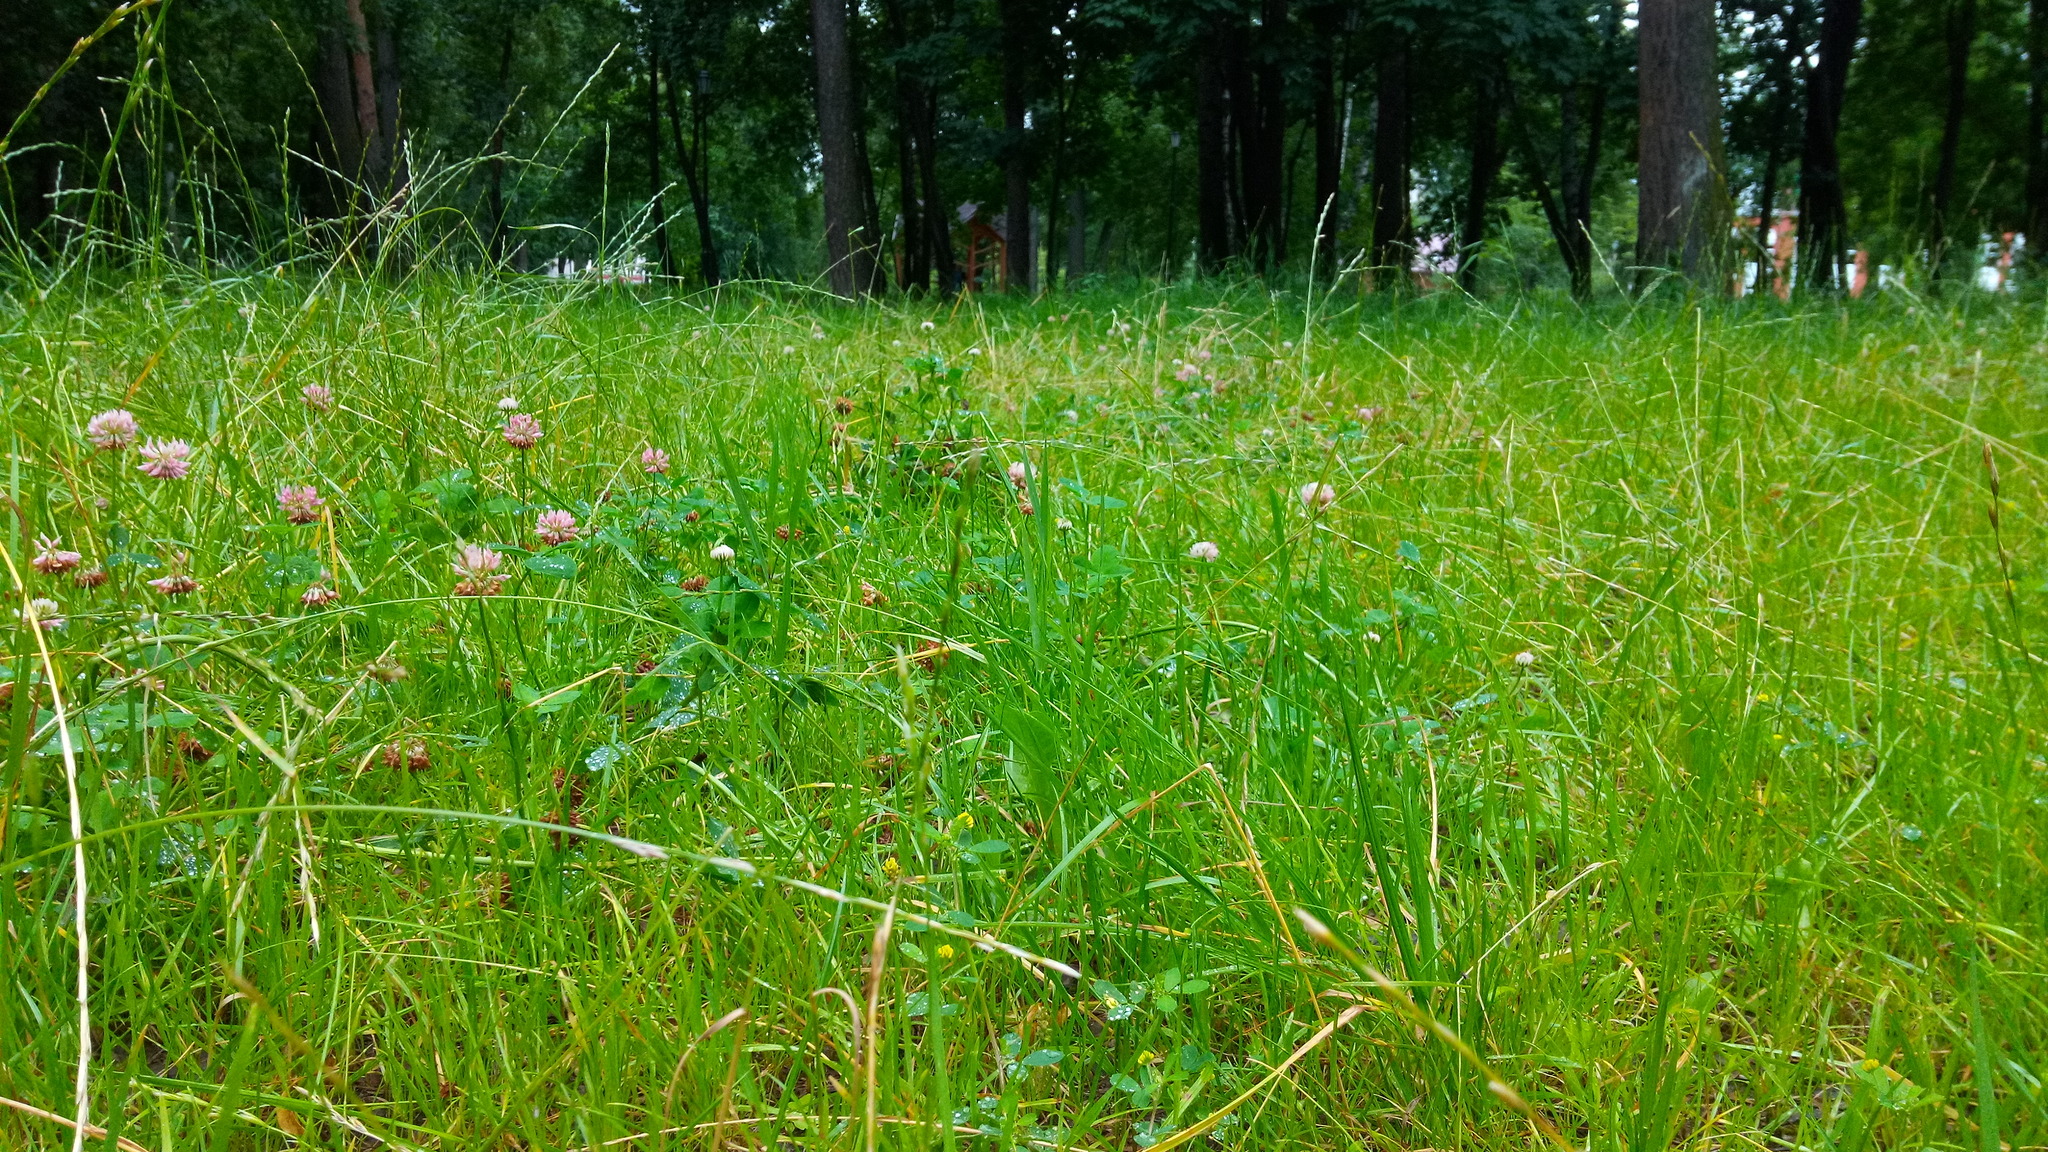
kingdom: Plantae
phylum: Tracheophyta
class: Magnoliopsida
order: Fabales
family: Fabaceae
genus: Medicago
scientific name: Medicago lupulina
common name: Black medick
